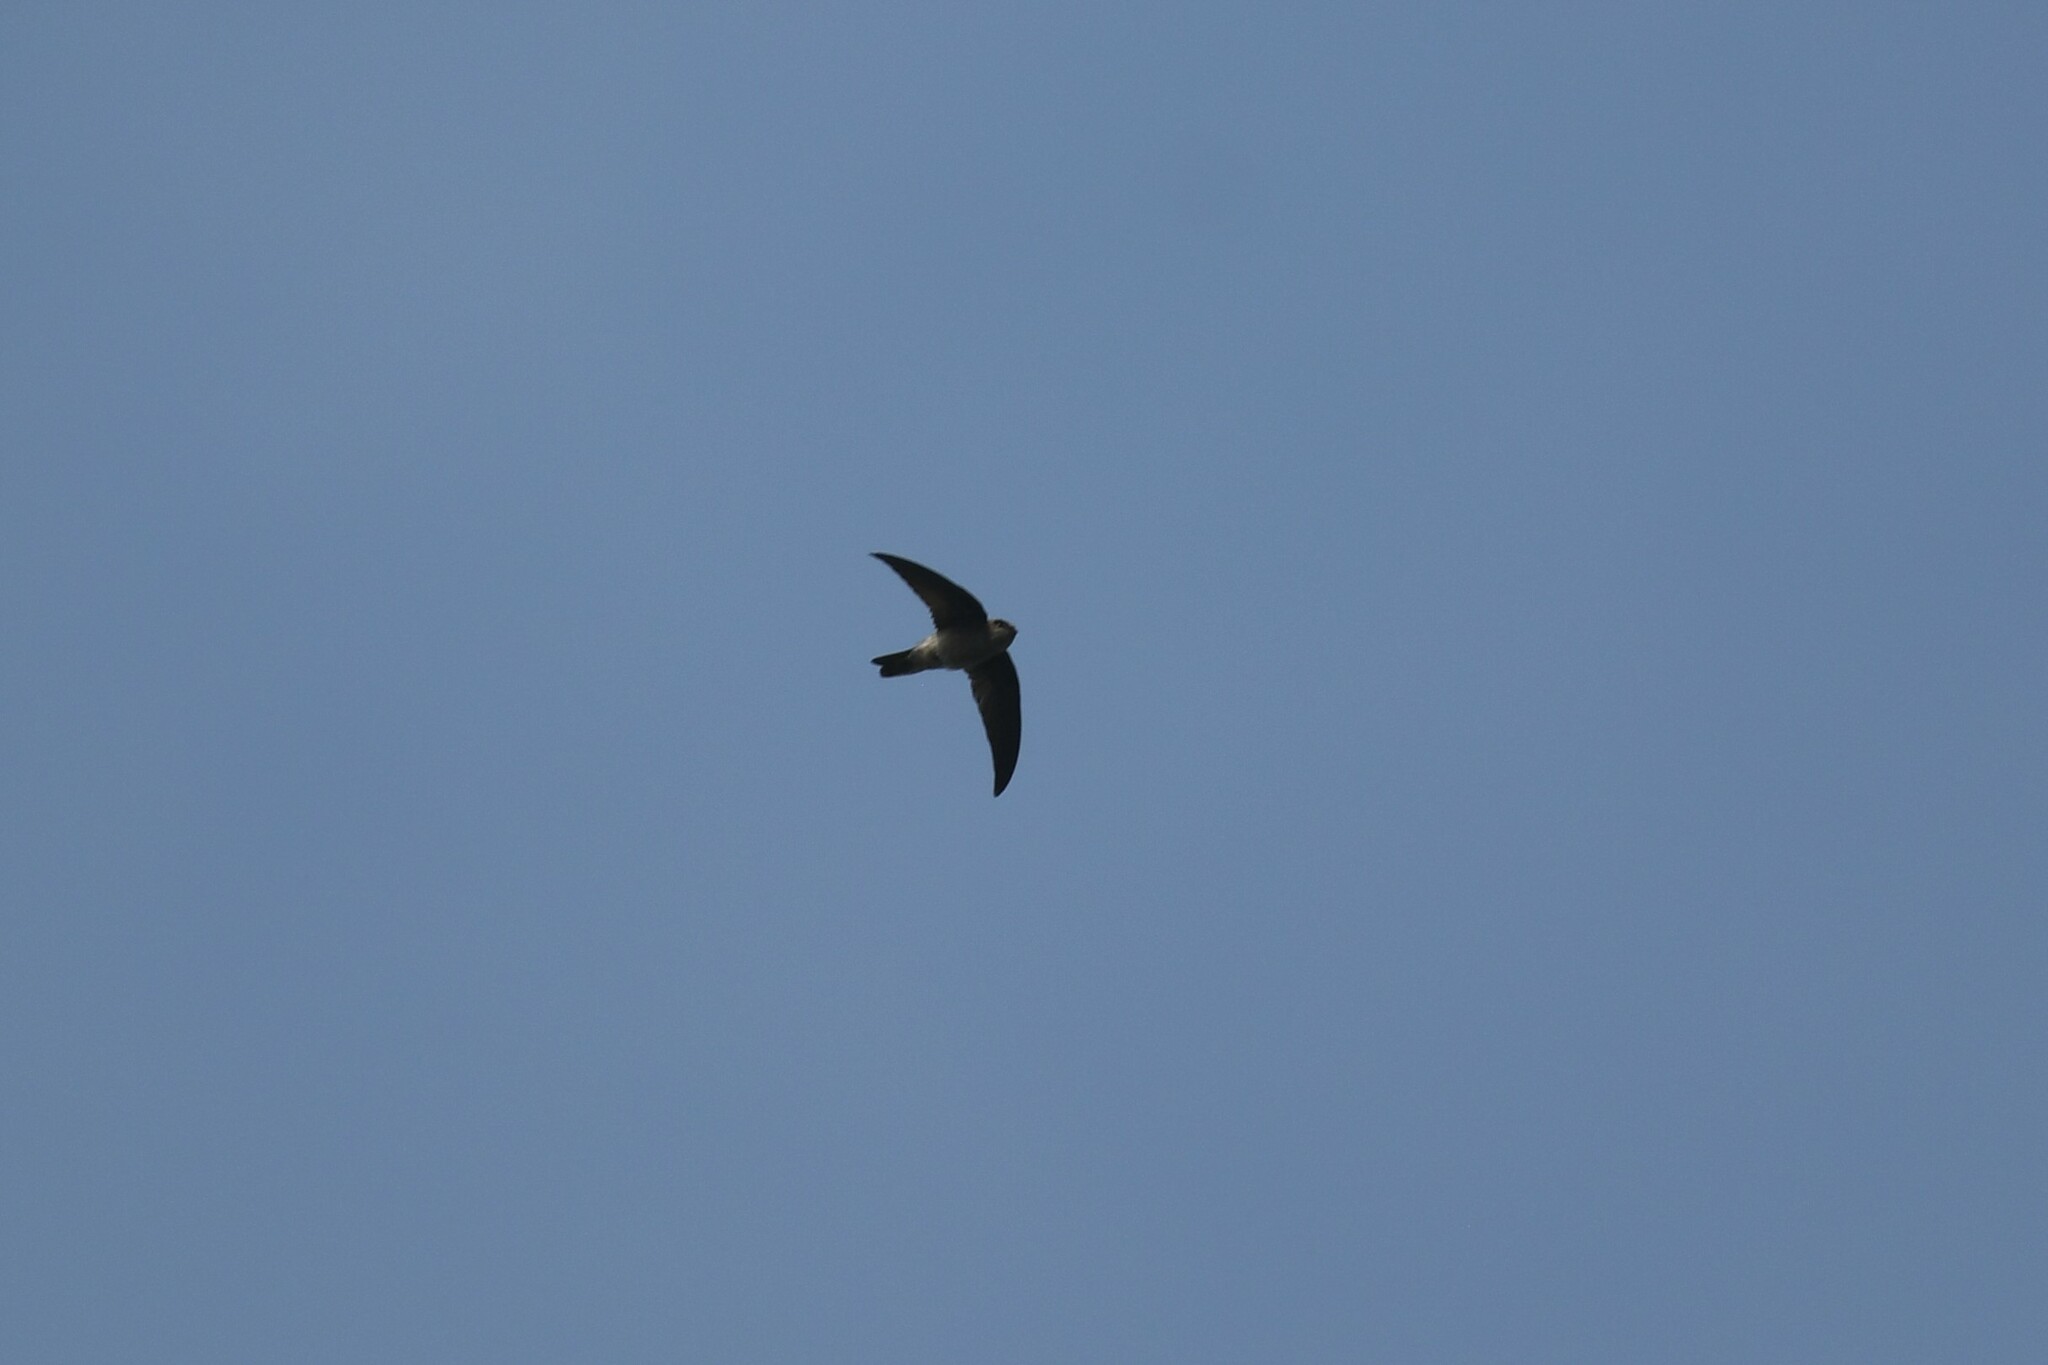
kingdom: Animalia
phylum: Chordata
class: Aves
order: Apodiformes
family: Apodidae
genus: Aerodramus
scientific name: Aerodramus germani
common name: Germain's swiftlet
